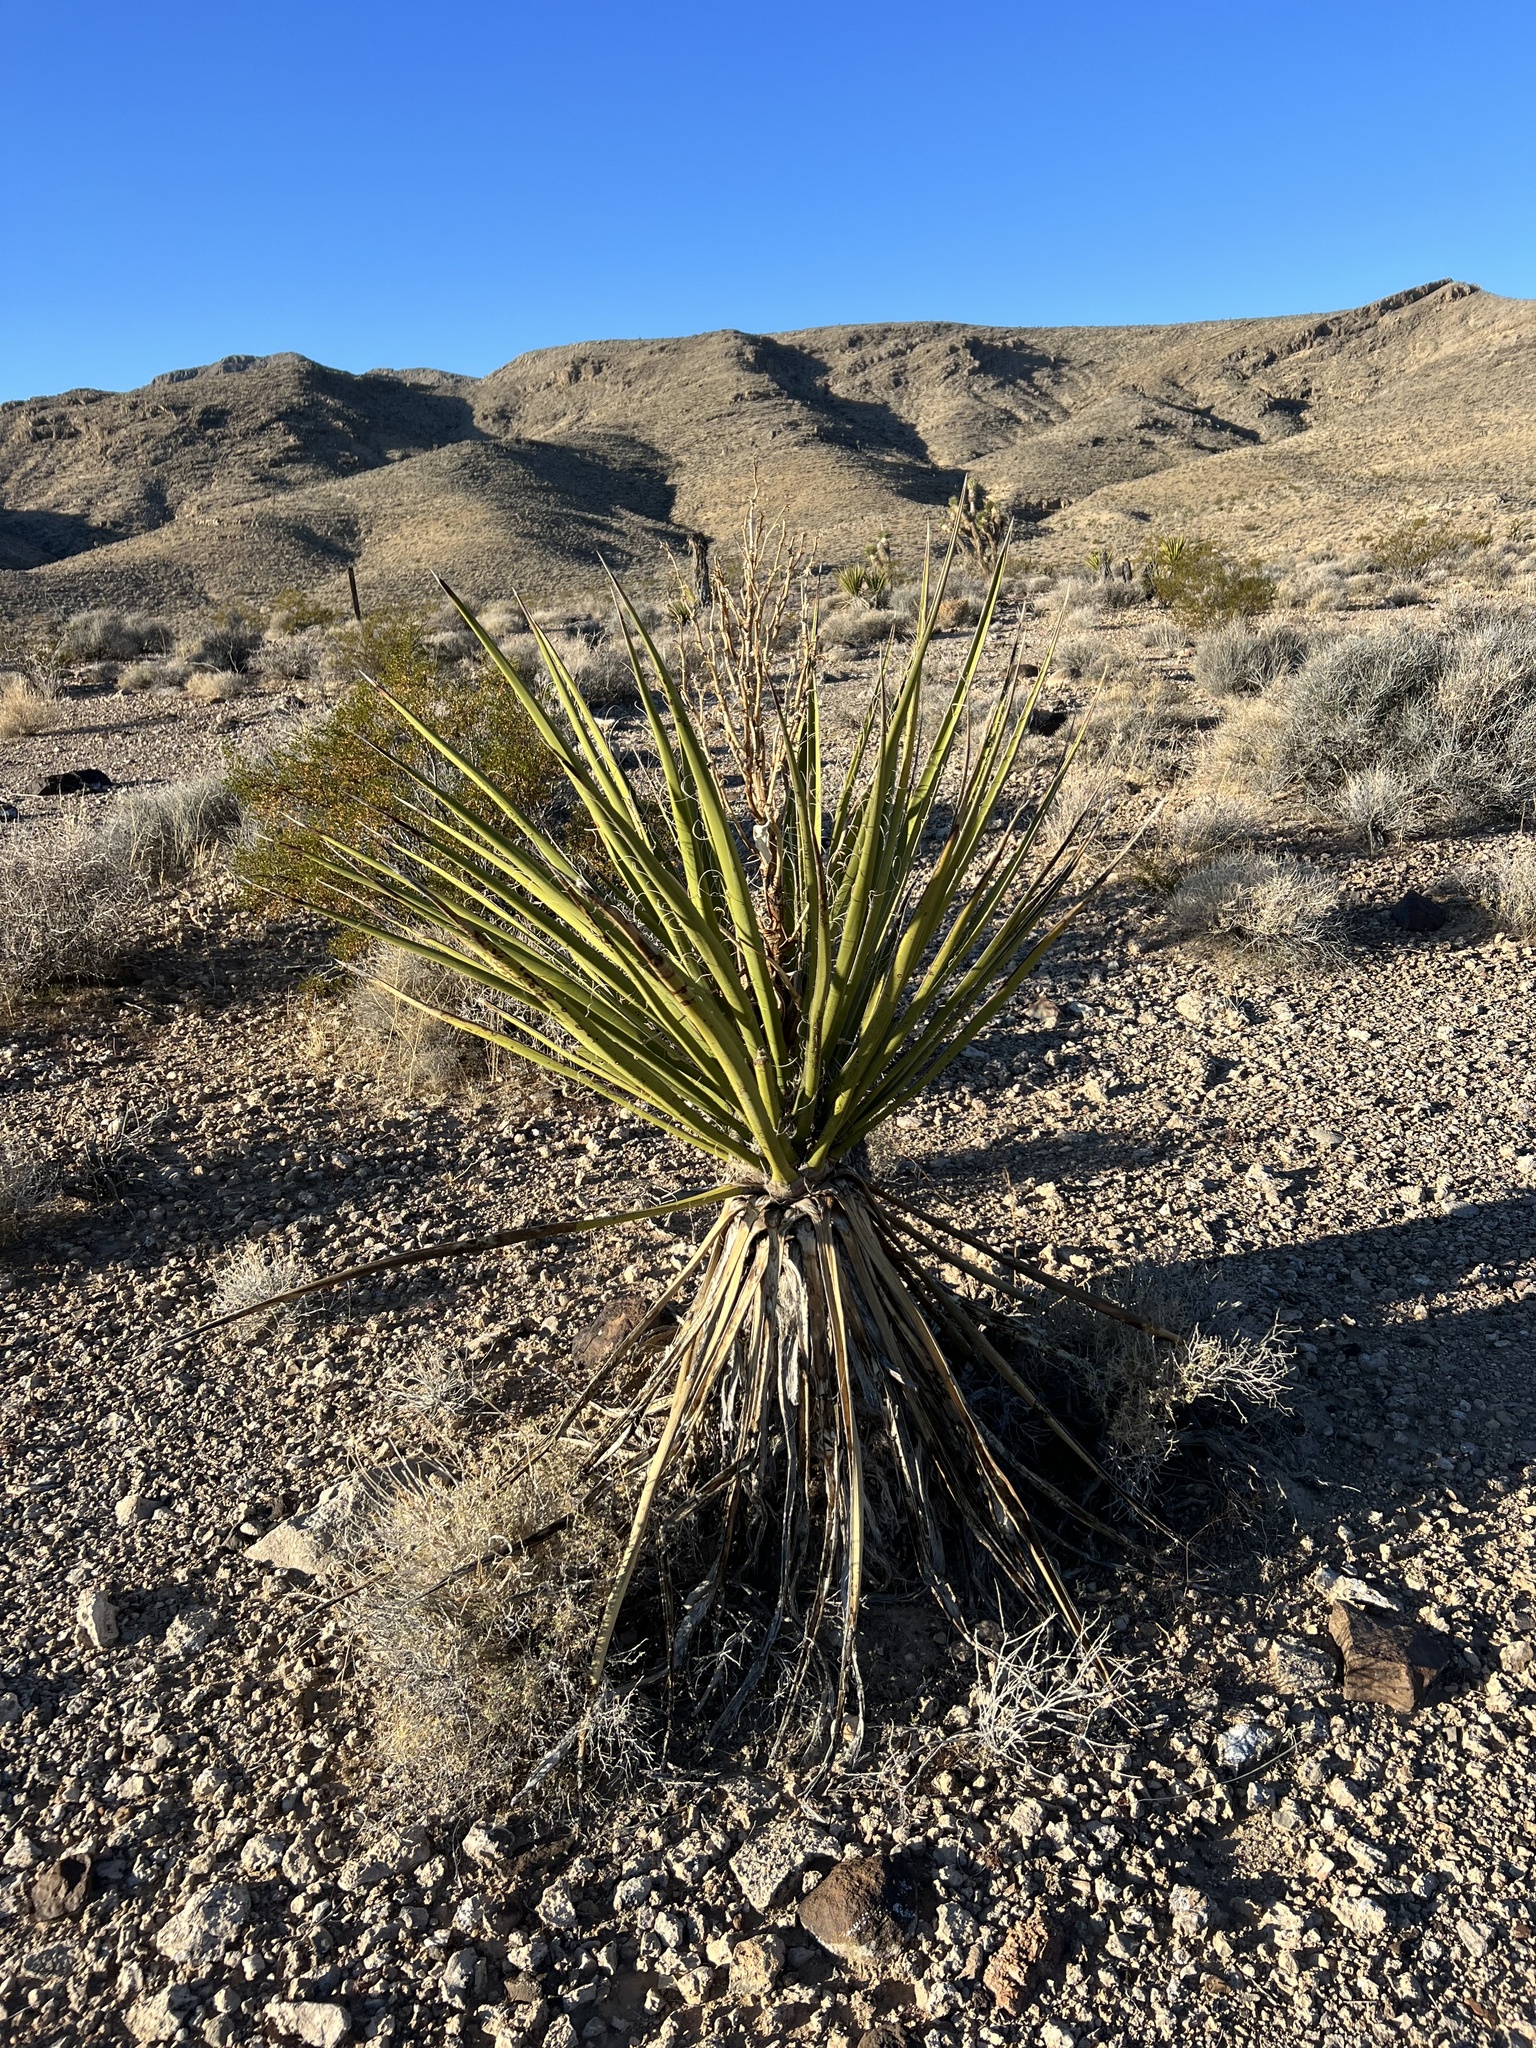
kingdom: Plantae
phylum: Tracheophyta
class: Liliopsida
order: Asparagales
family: Asparagaceae
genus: Yucca
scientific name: Yucca schidigera
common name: Mojave yucca
